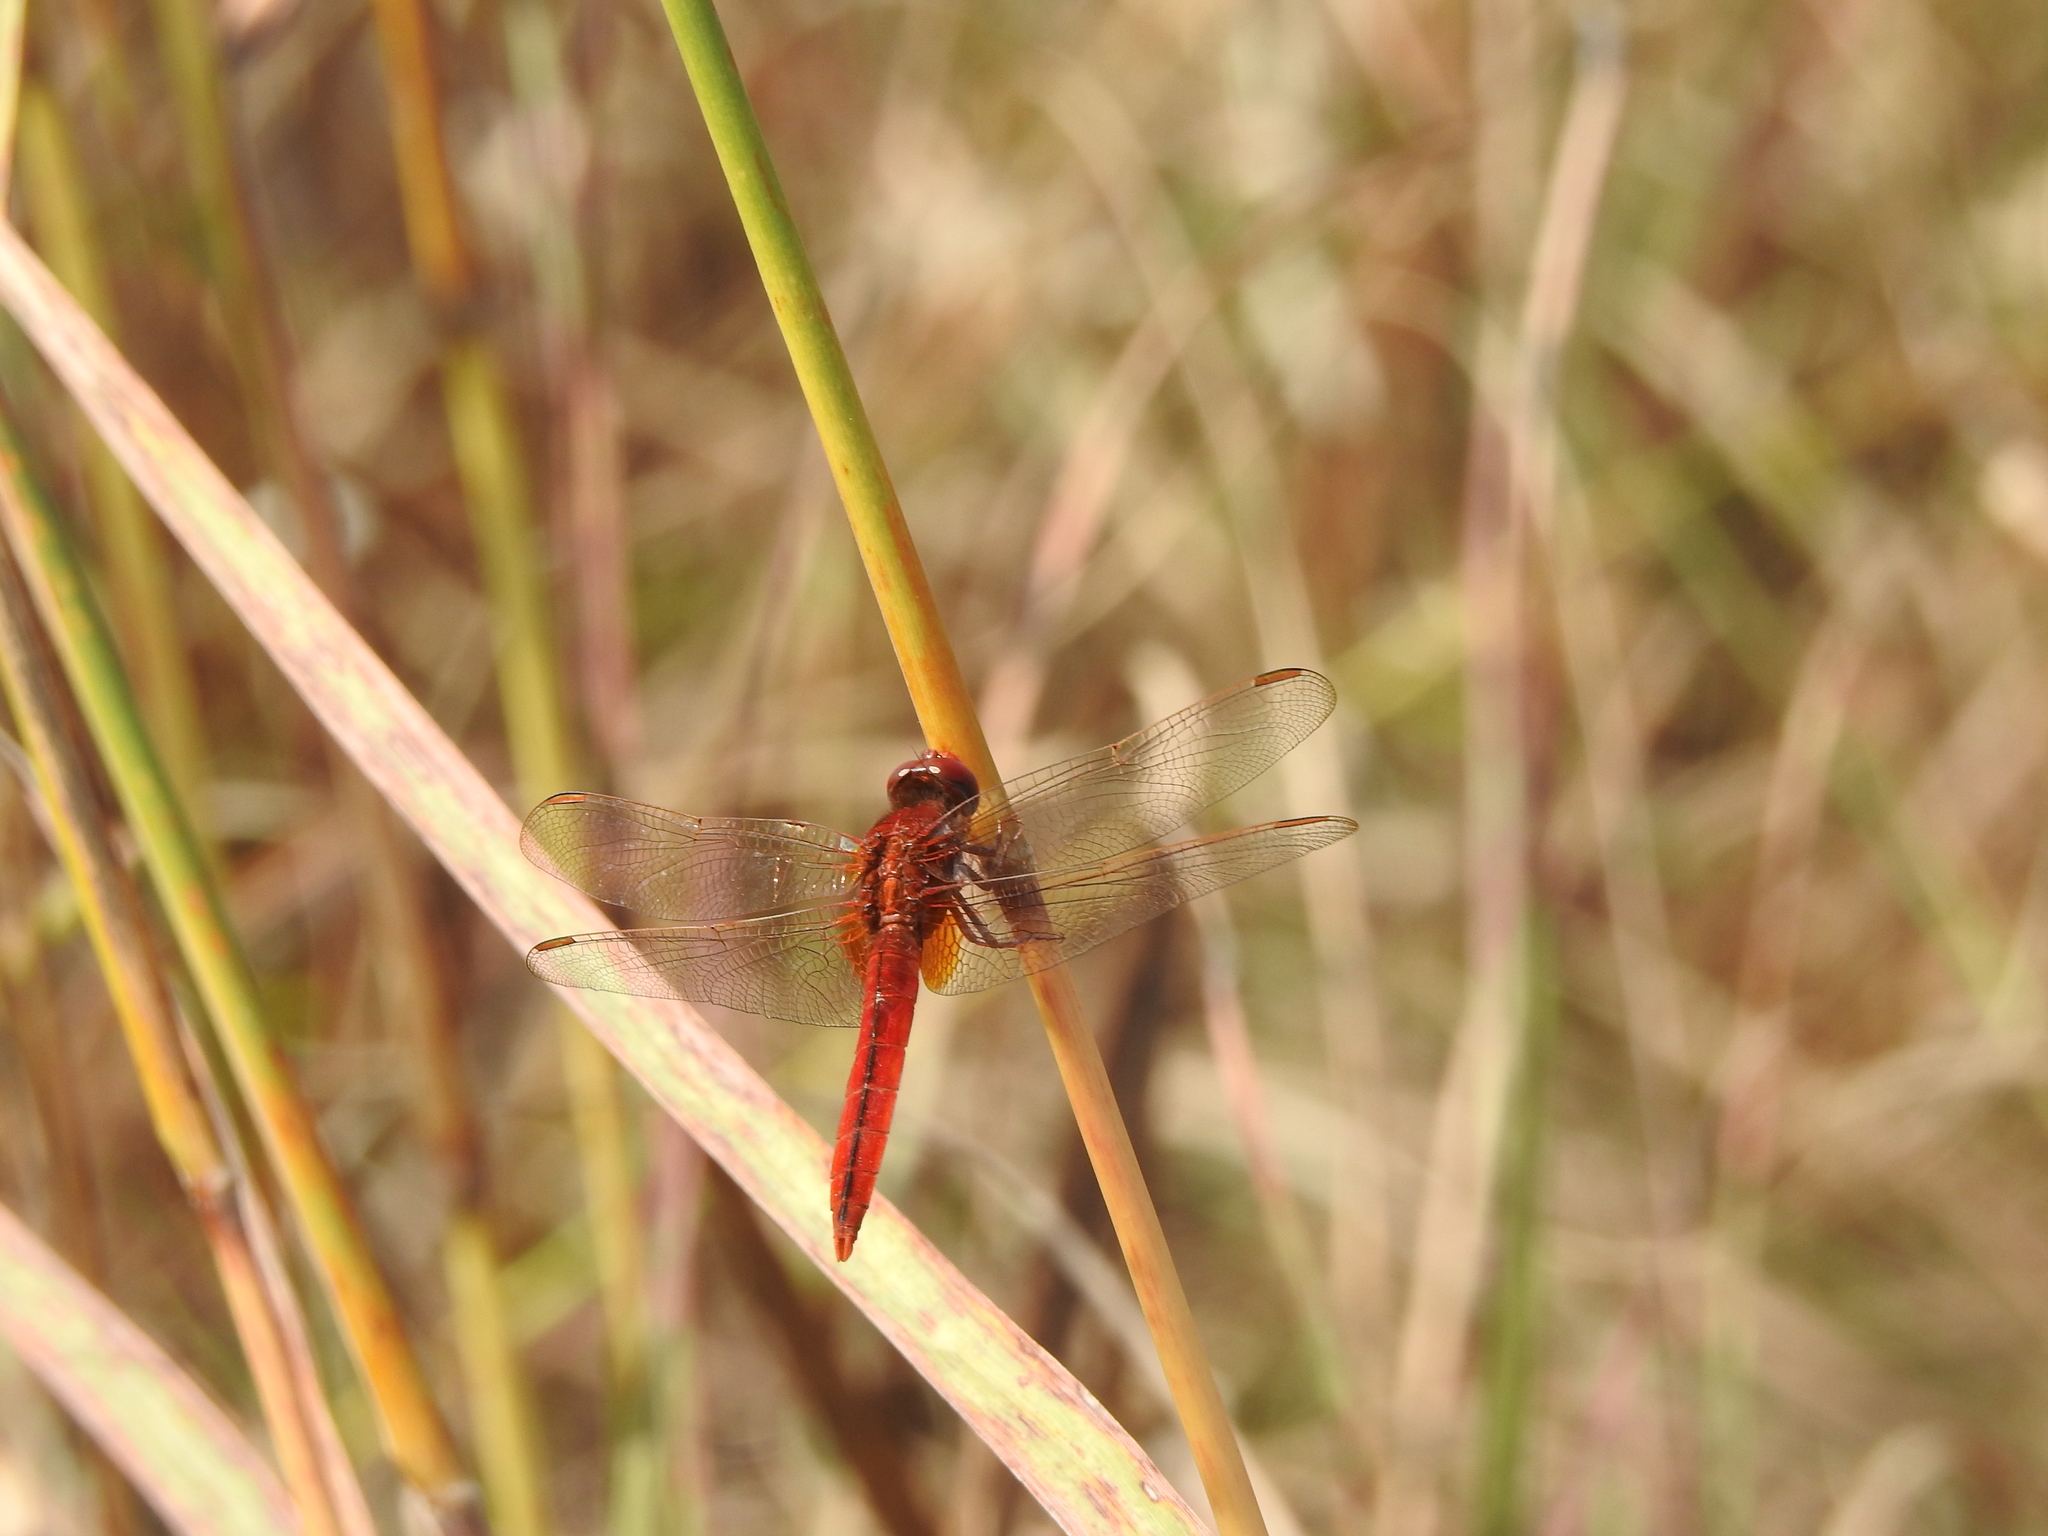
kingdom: Animalia
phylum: Arthropoda
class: Insecta
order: Odonata
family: Libellulidae
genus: Crocothemis
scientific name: Crocothemis servilia
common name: Scarlet skimmer
